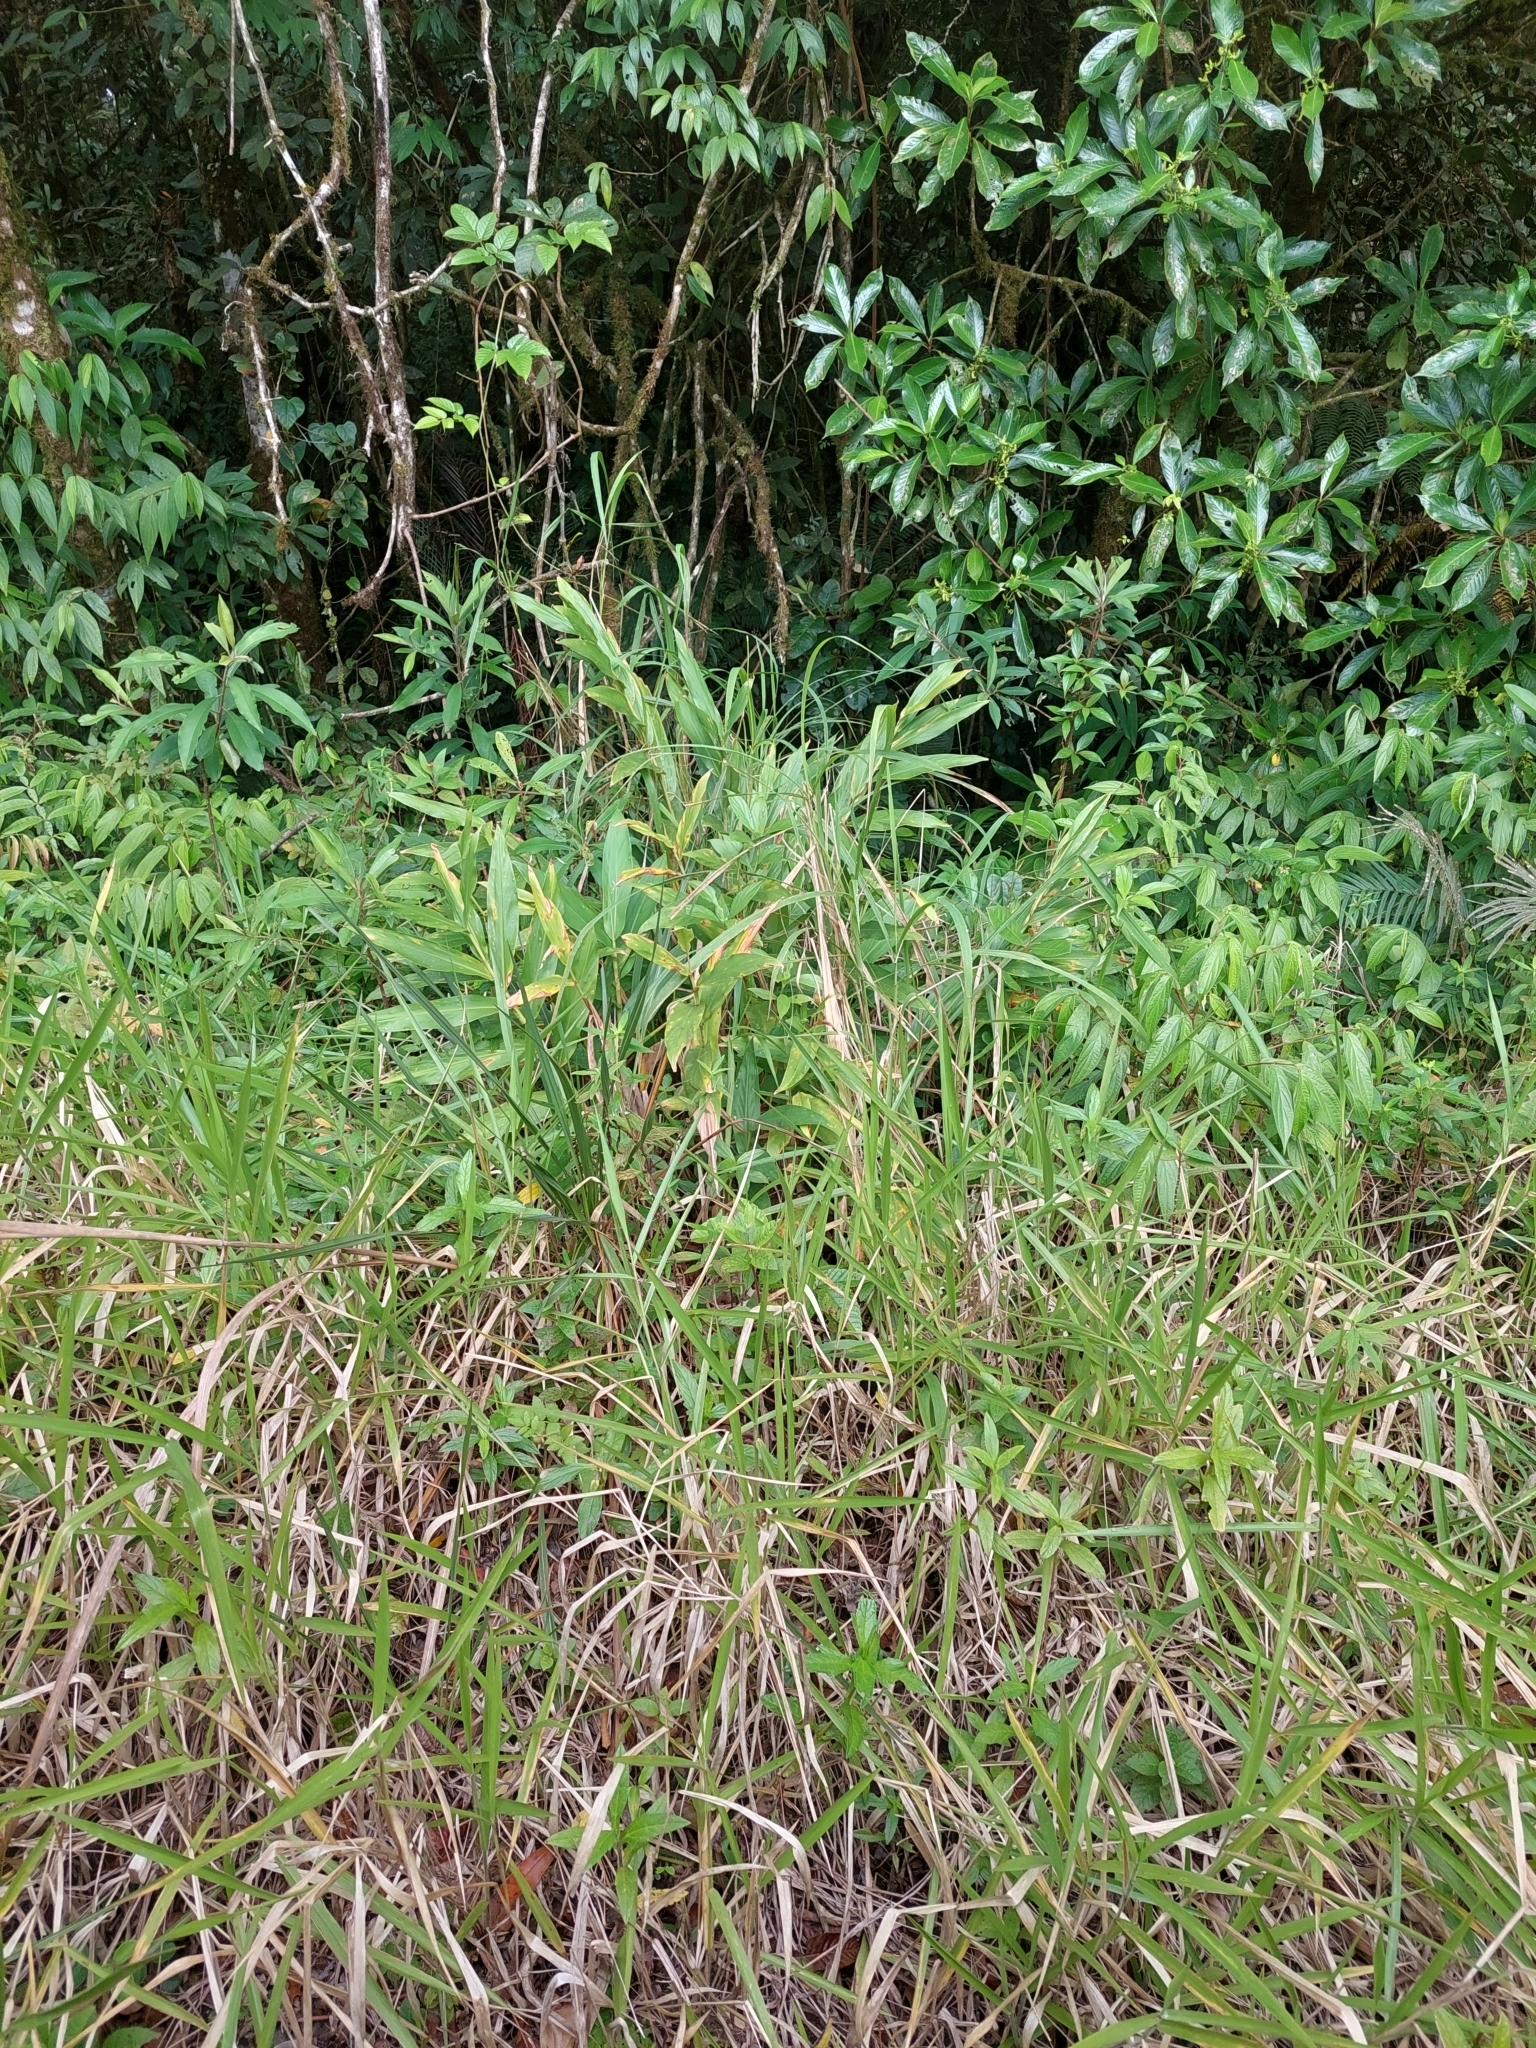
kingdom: Plantae
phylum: Tracheophyta
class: Liliopsida
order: Zingiberales
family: Zingiberaceae
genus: Hedychium
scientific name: Hedychium coronarium
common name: White garland-lily
